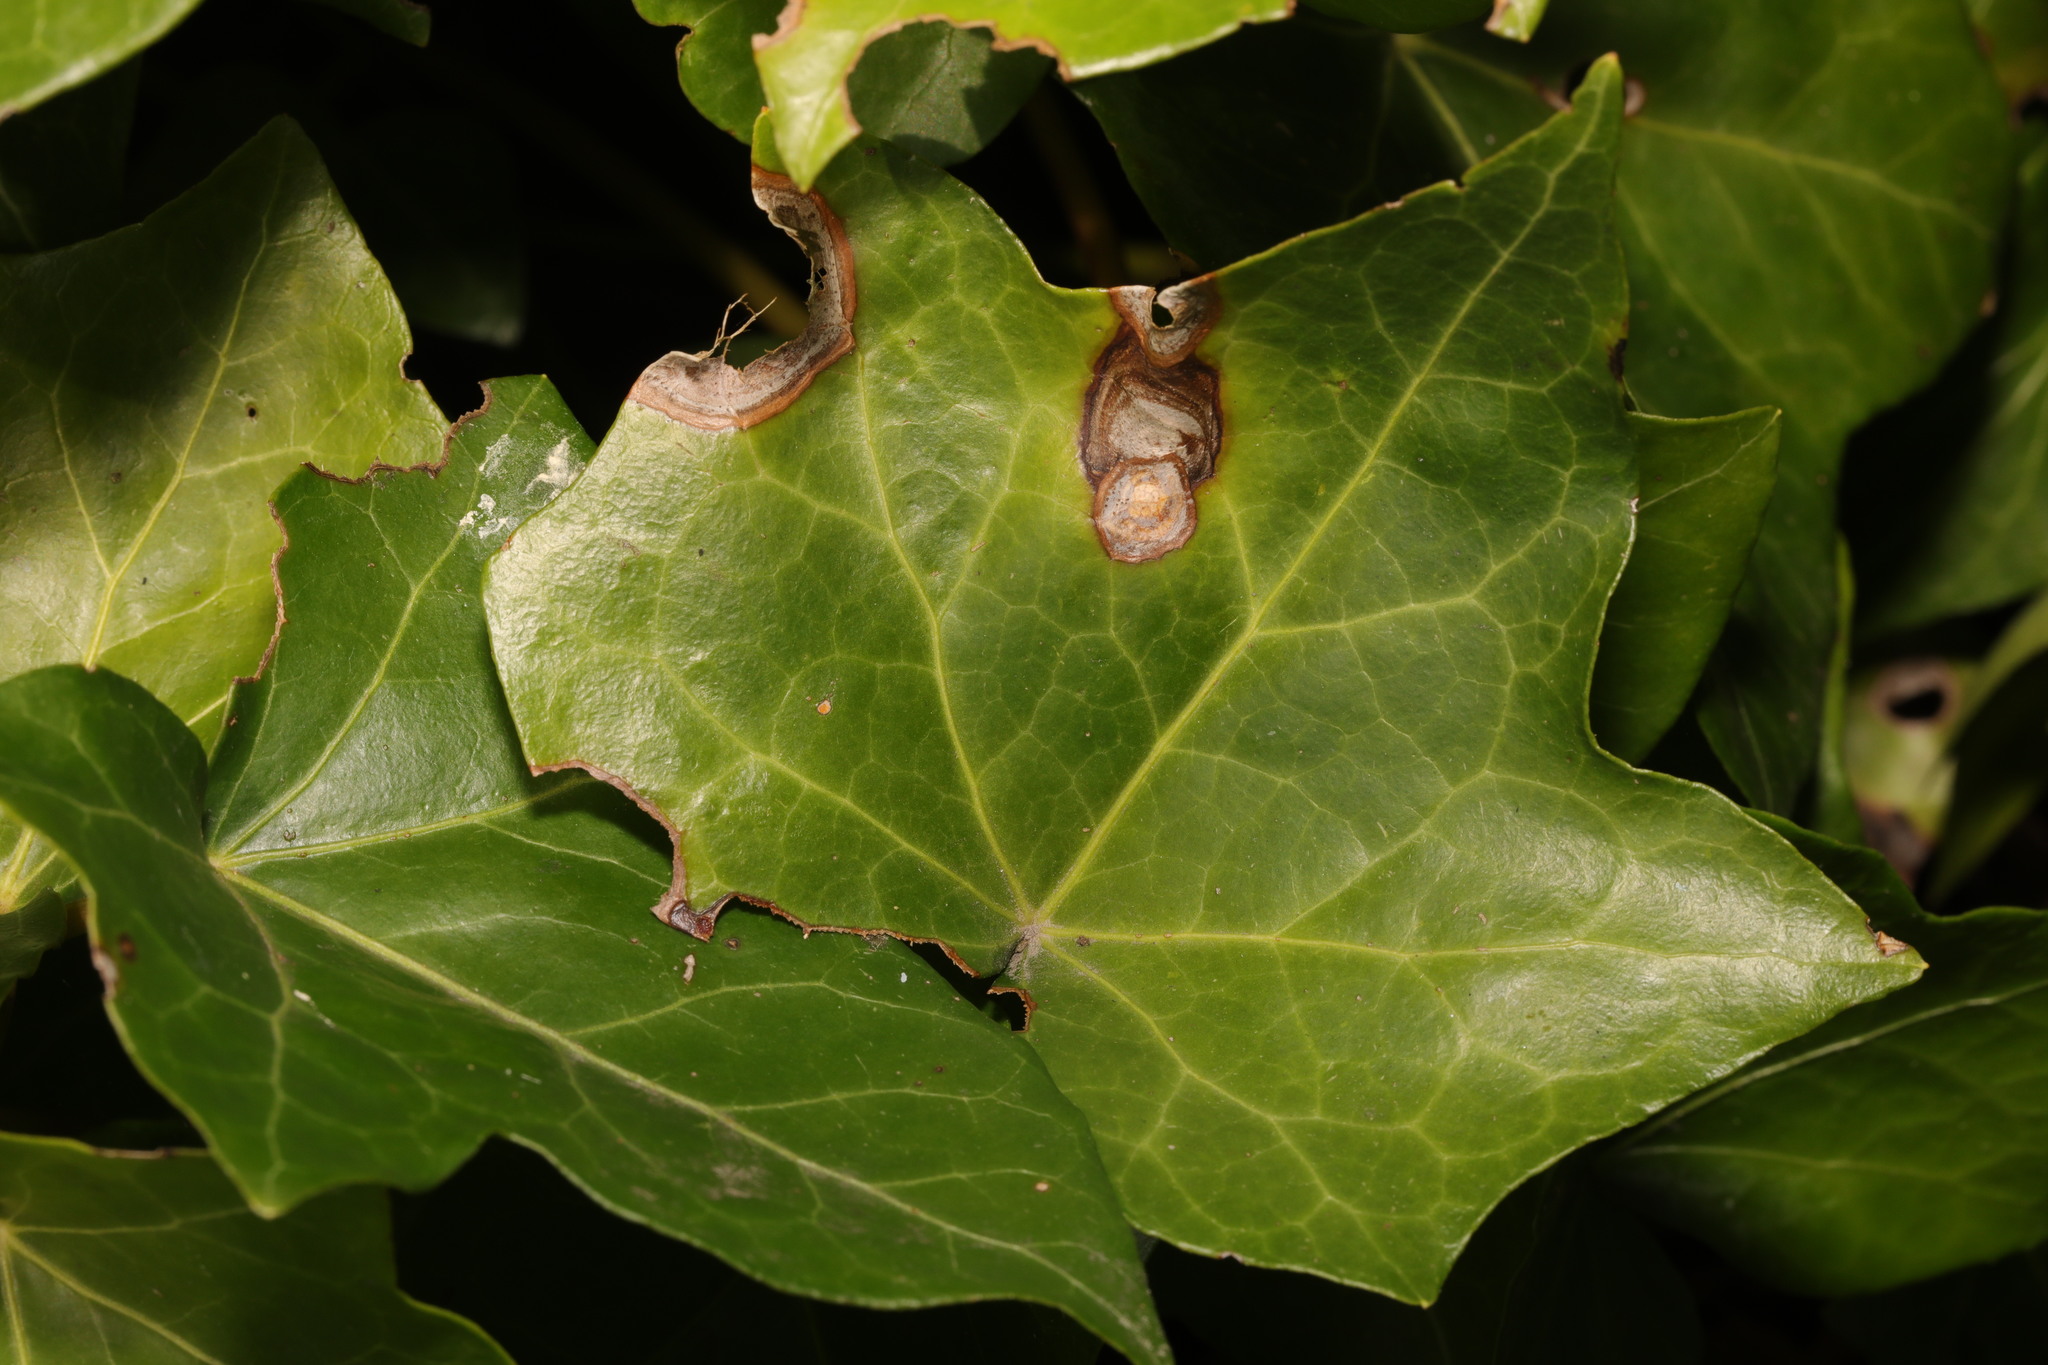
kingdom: Fungi
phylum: Ascomycota
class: Dothideomycetes
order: Pleosporales
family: Didymellaceae
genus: Boeremia
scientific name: Boeremia hedericola
